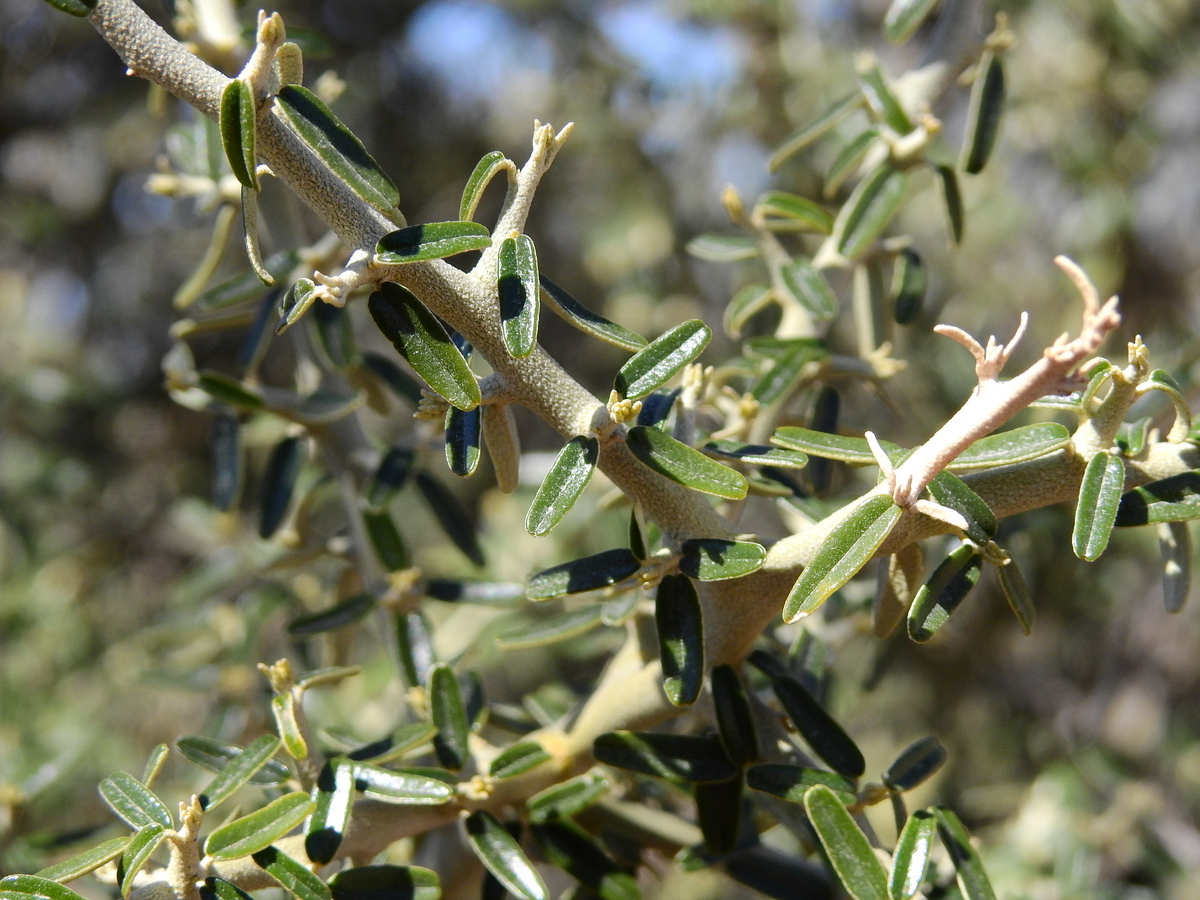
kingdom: Plantae
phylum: Tracheophyta
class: Magnoliopsida
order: Brassicales
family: Capparaceae
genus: Atamisquea
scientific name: Atamisquea emarginata
